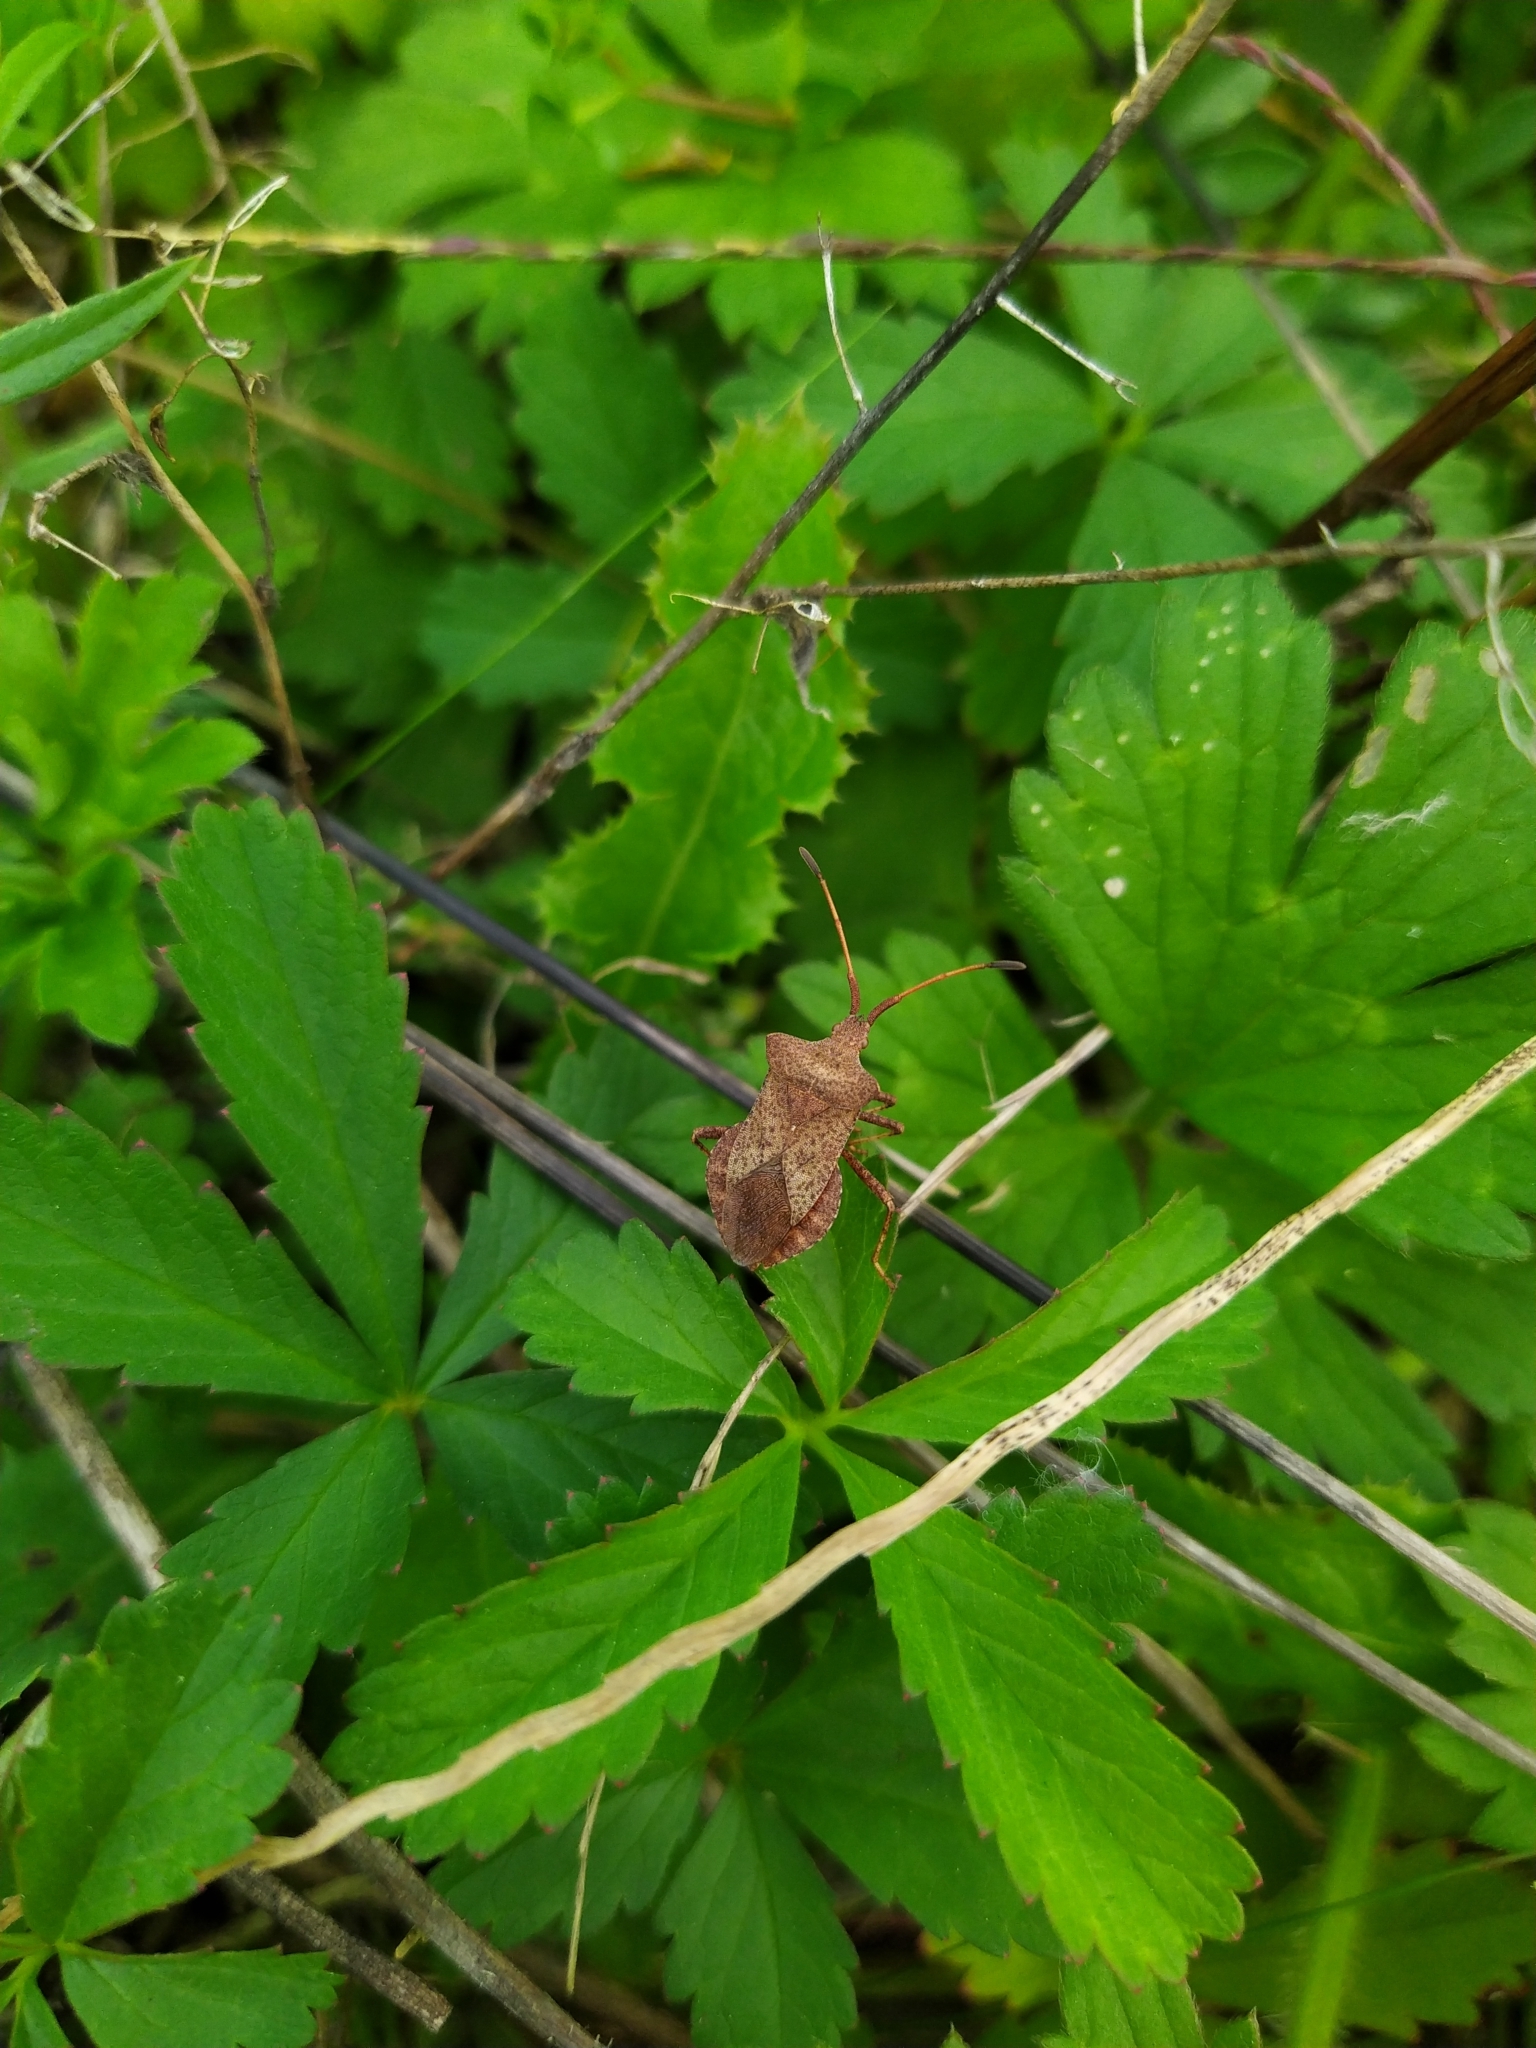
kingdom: Animalia
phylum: Arthropoda
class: Insecta
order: Hemiptera
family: Coreidae
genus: Coreus
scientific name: Coreus marginatus
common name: Dock bug
